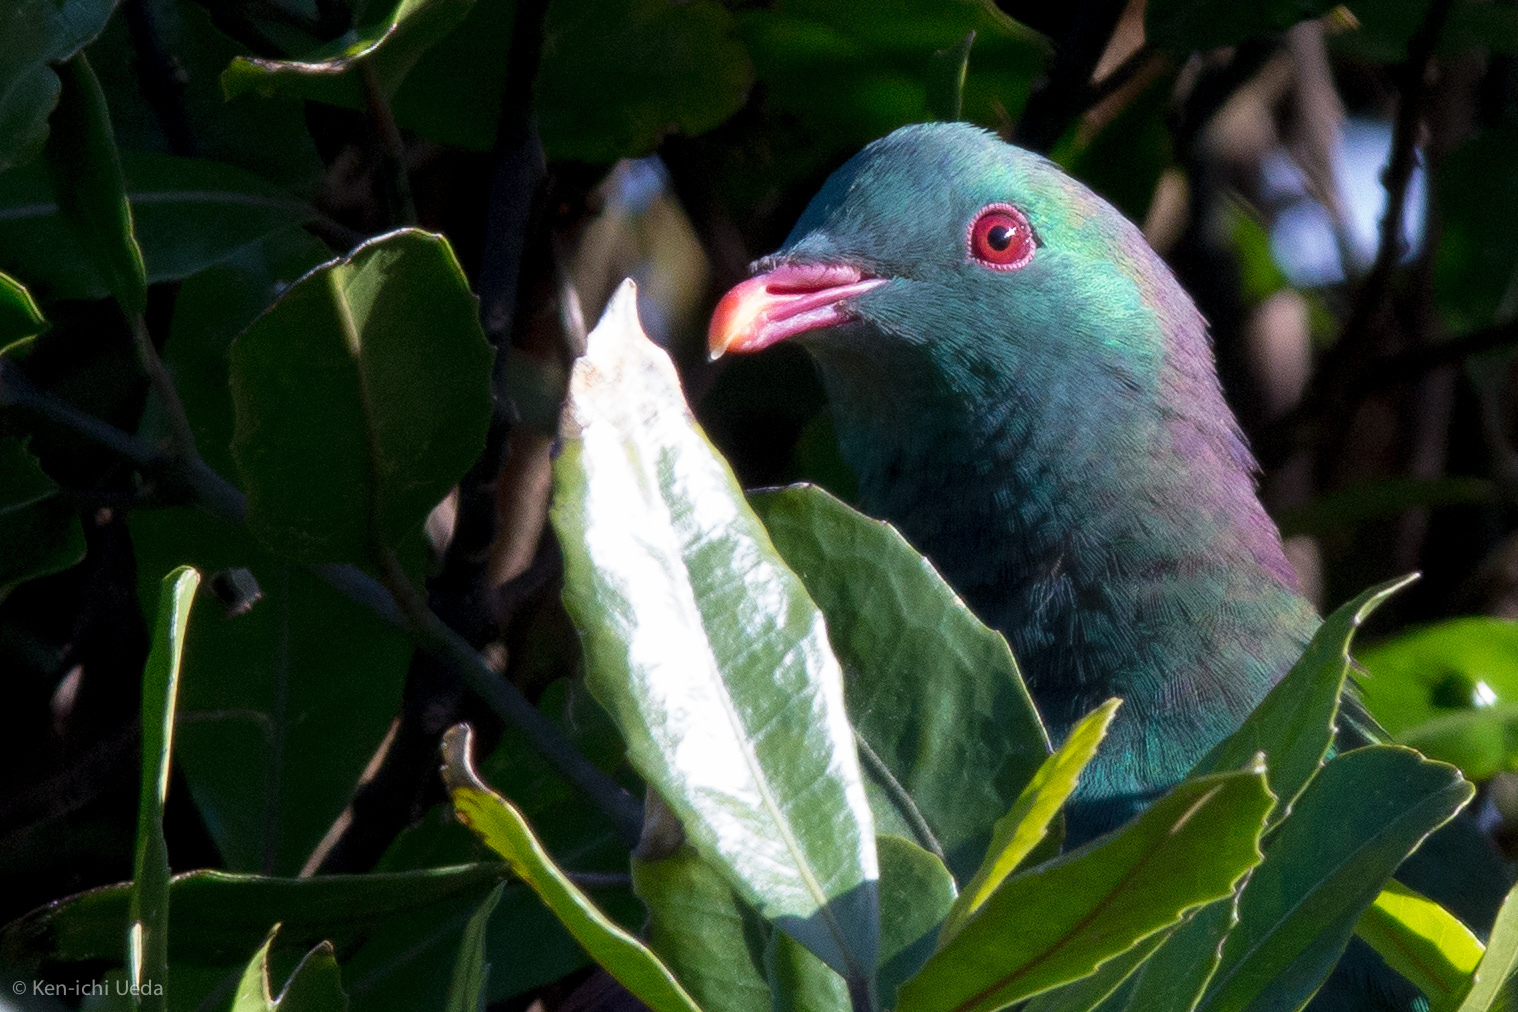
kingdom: Animalia
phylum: Chordata
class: Aves
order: Columbiformes
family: Columbidae
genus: Hemiphaga
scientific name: Hemiphaga novaeseelandiae
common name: New zealand pigeon
